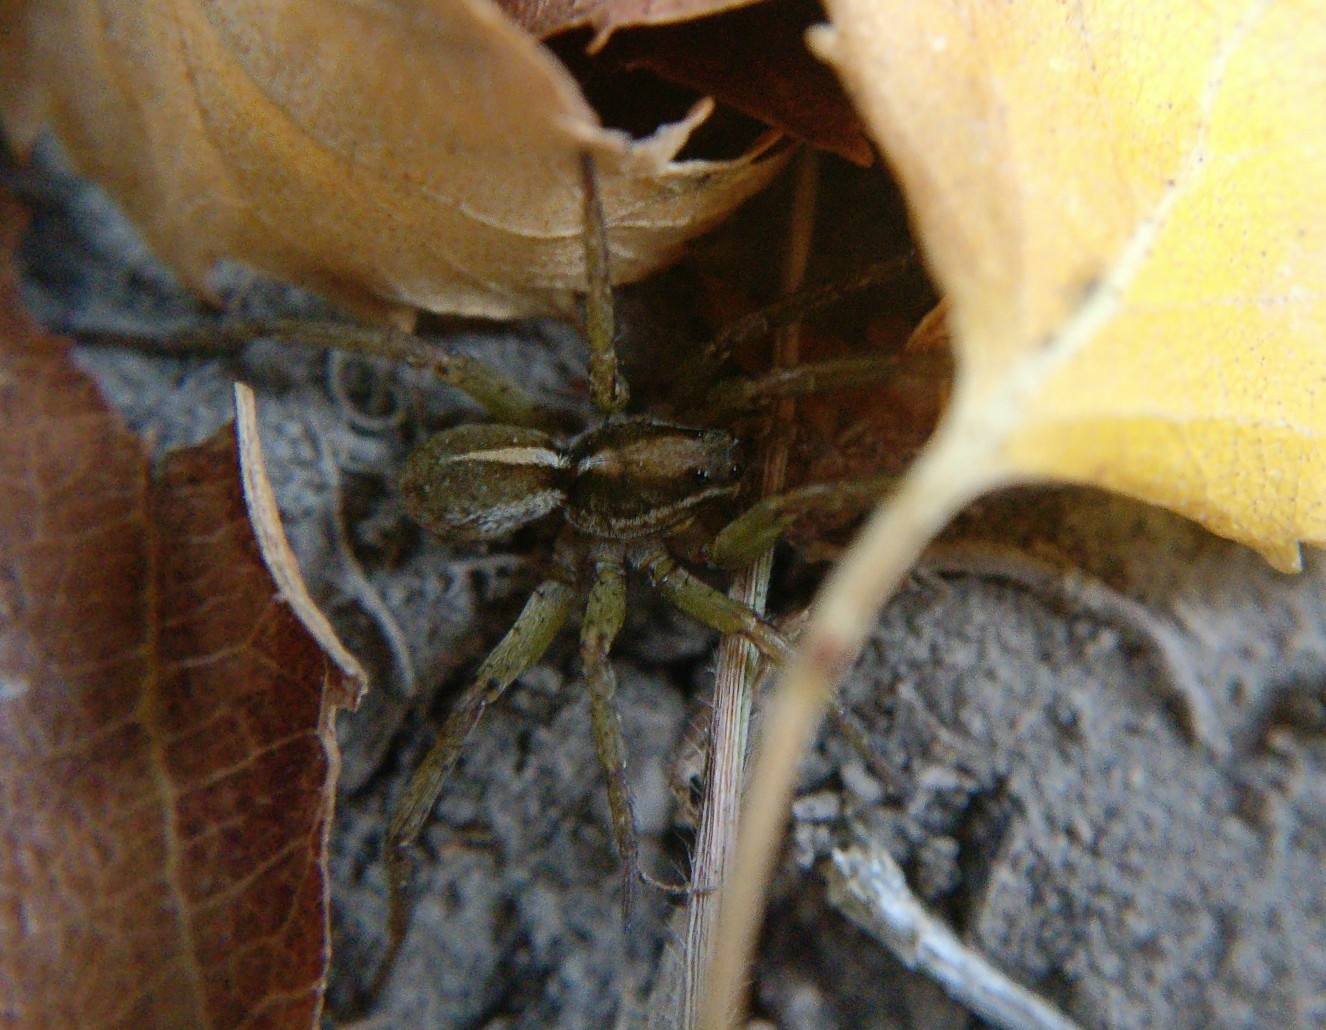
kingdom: Animalia
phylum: Arthropoda
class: Arachnida
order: Araneae
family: Lycosidae
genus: Anoteropsis
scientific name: Anoteropsis
